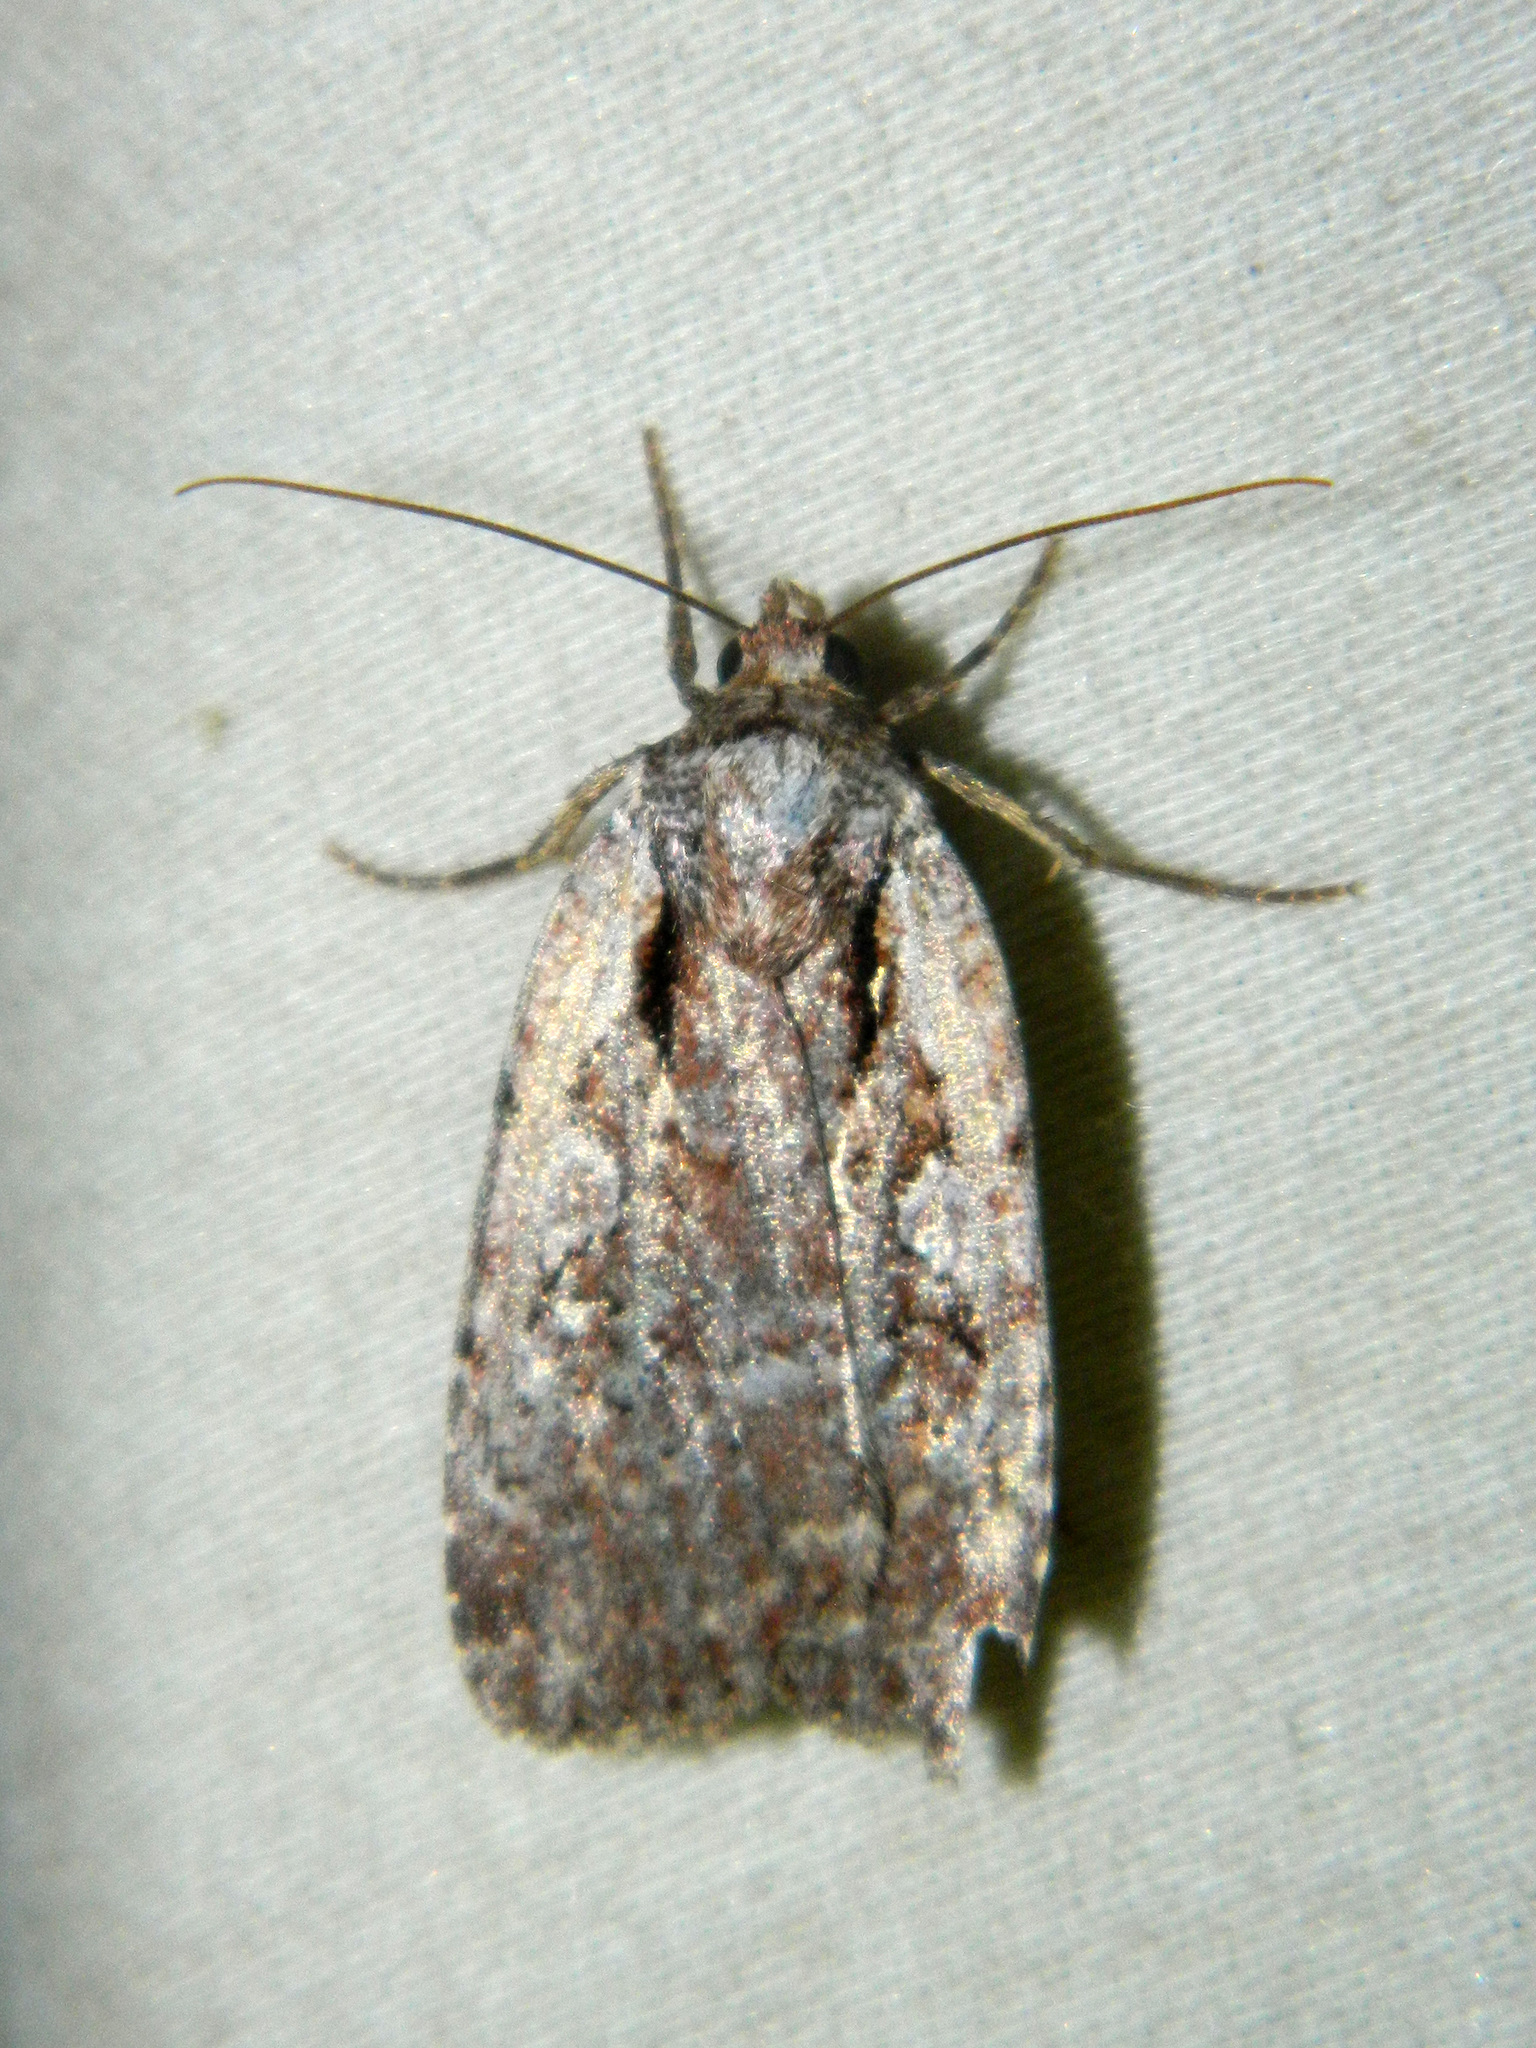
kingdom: Animalia
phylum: Arthropoda
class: Insecta
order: Lepidoptera
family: Noctuidae
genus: Eueretagrotis
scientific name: Eueretagrotis attentus
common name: Attentive dart
